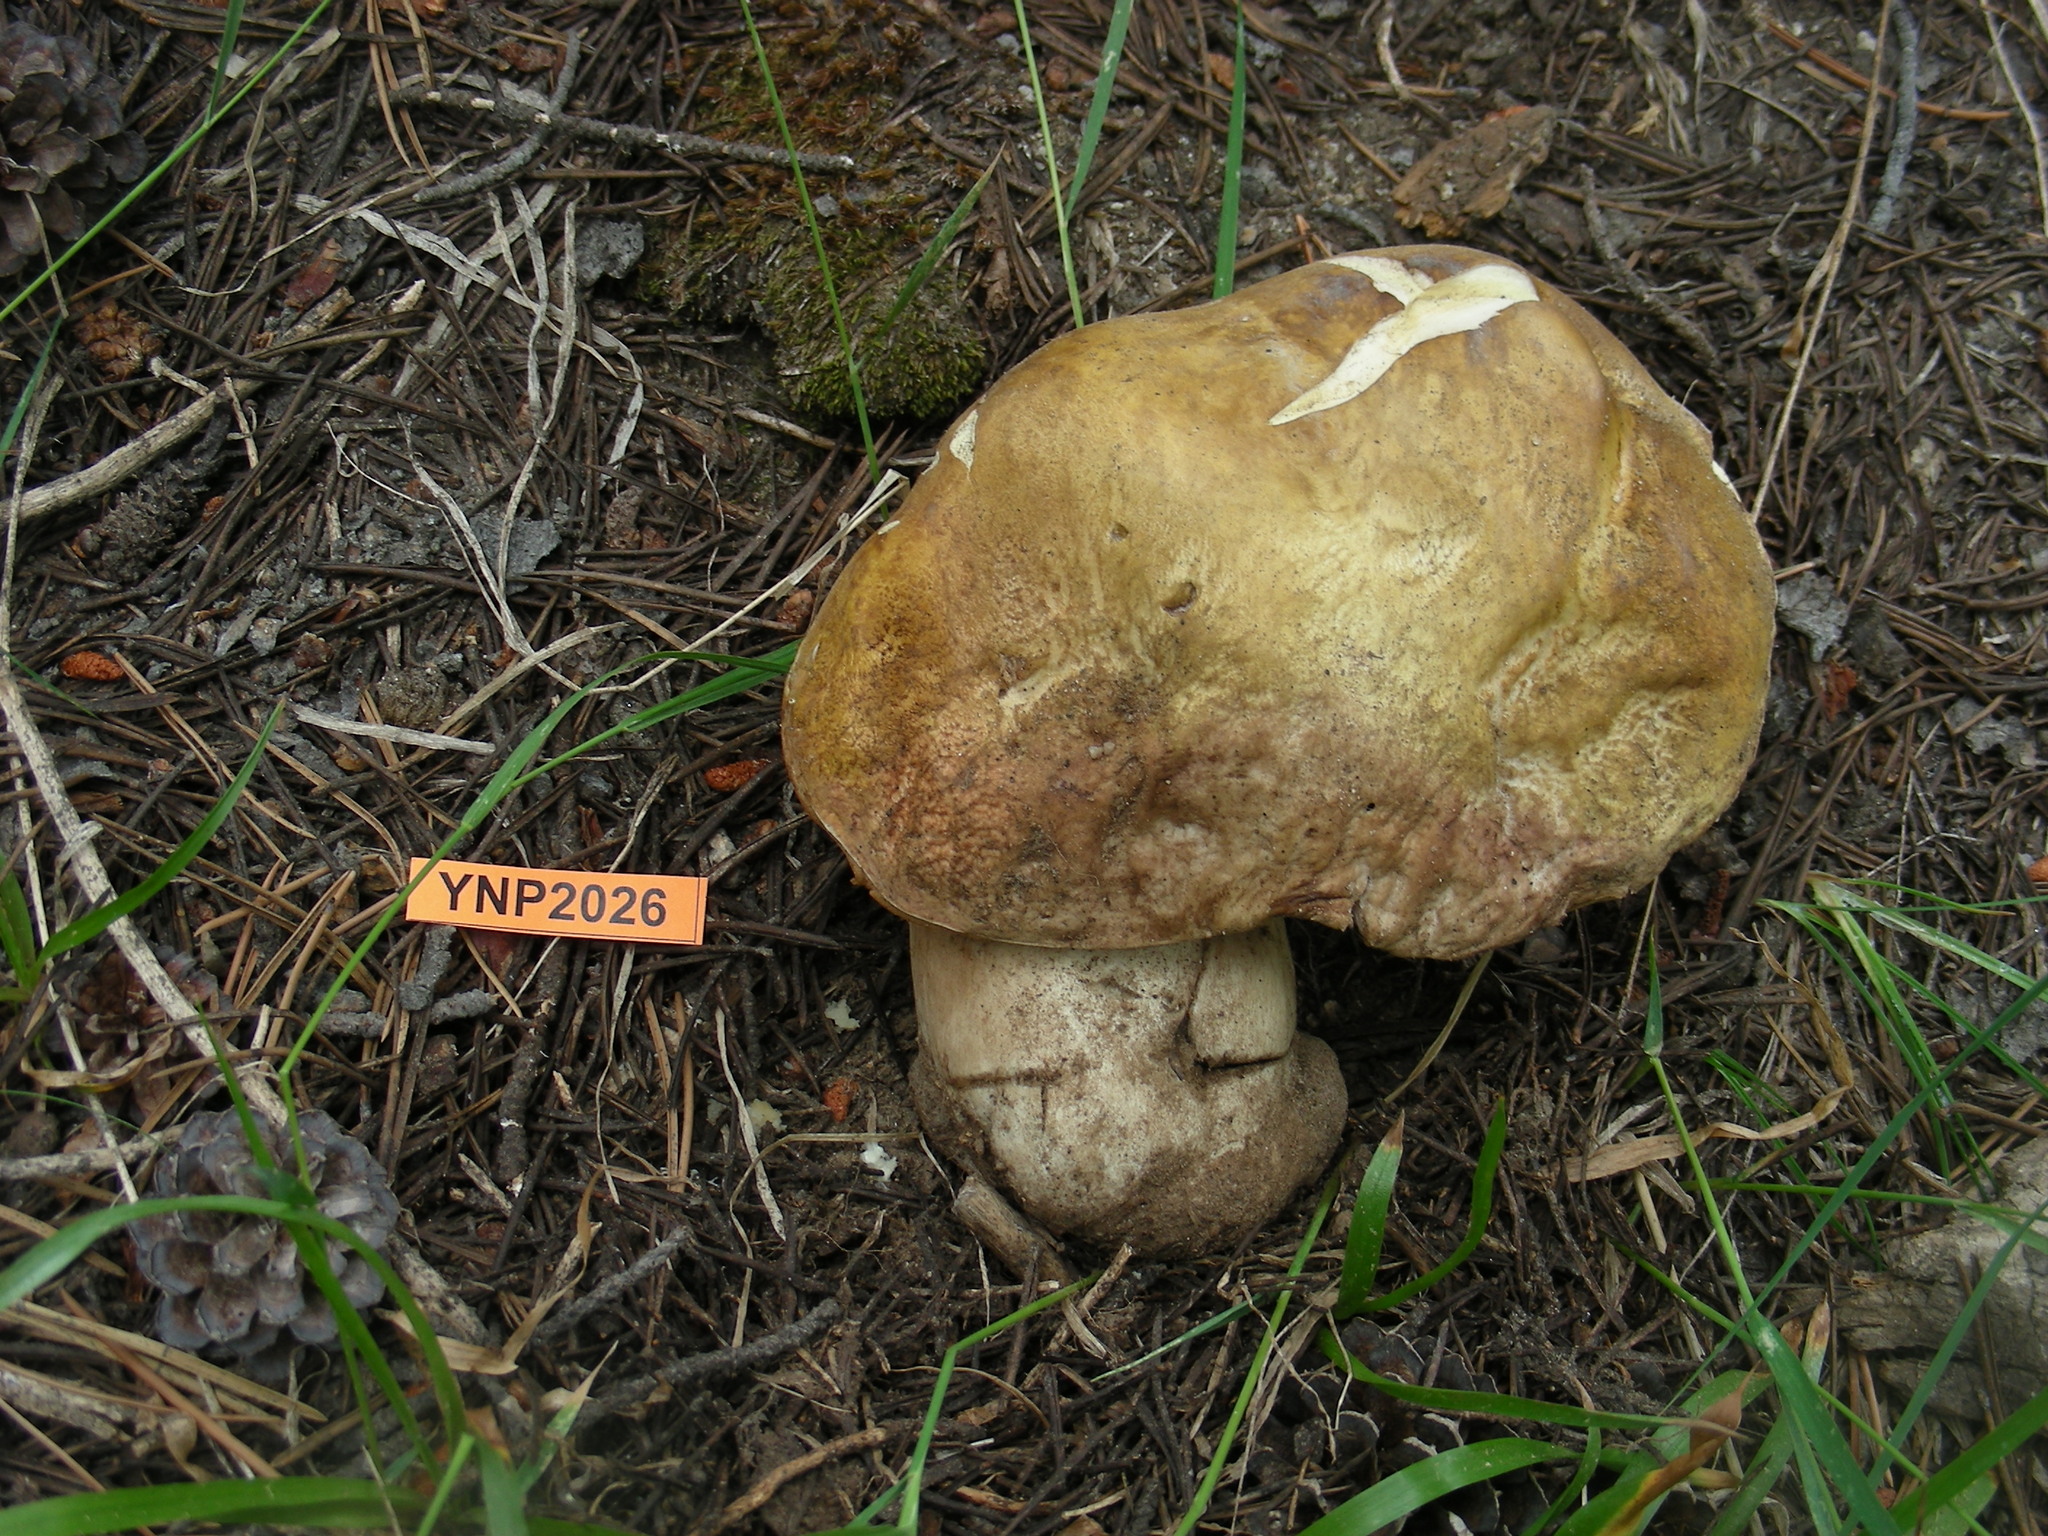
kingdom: Fungi
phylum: Basidiomycota
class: Agaricomycetes
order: Boletales
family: Boletaceae
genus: Boletus
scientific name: Boletus edulis
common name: Cep
